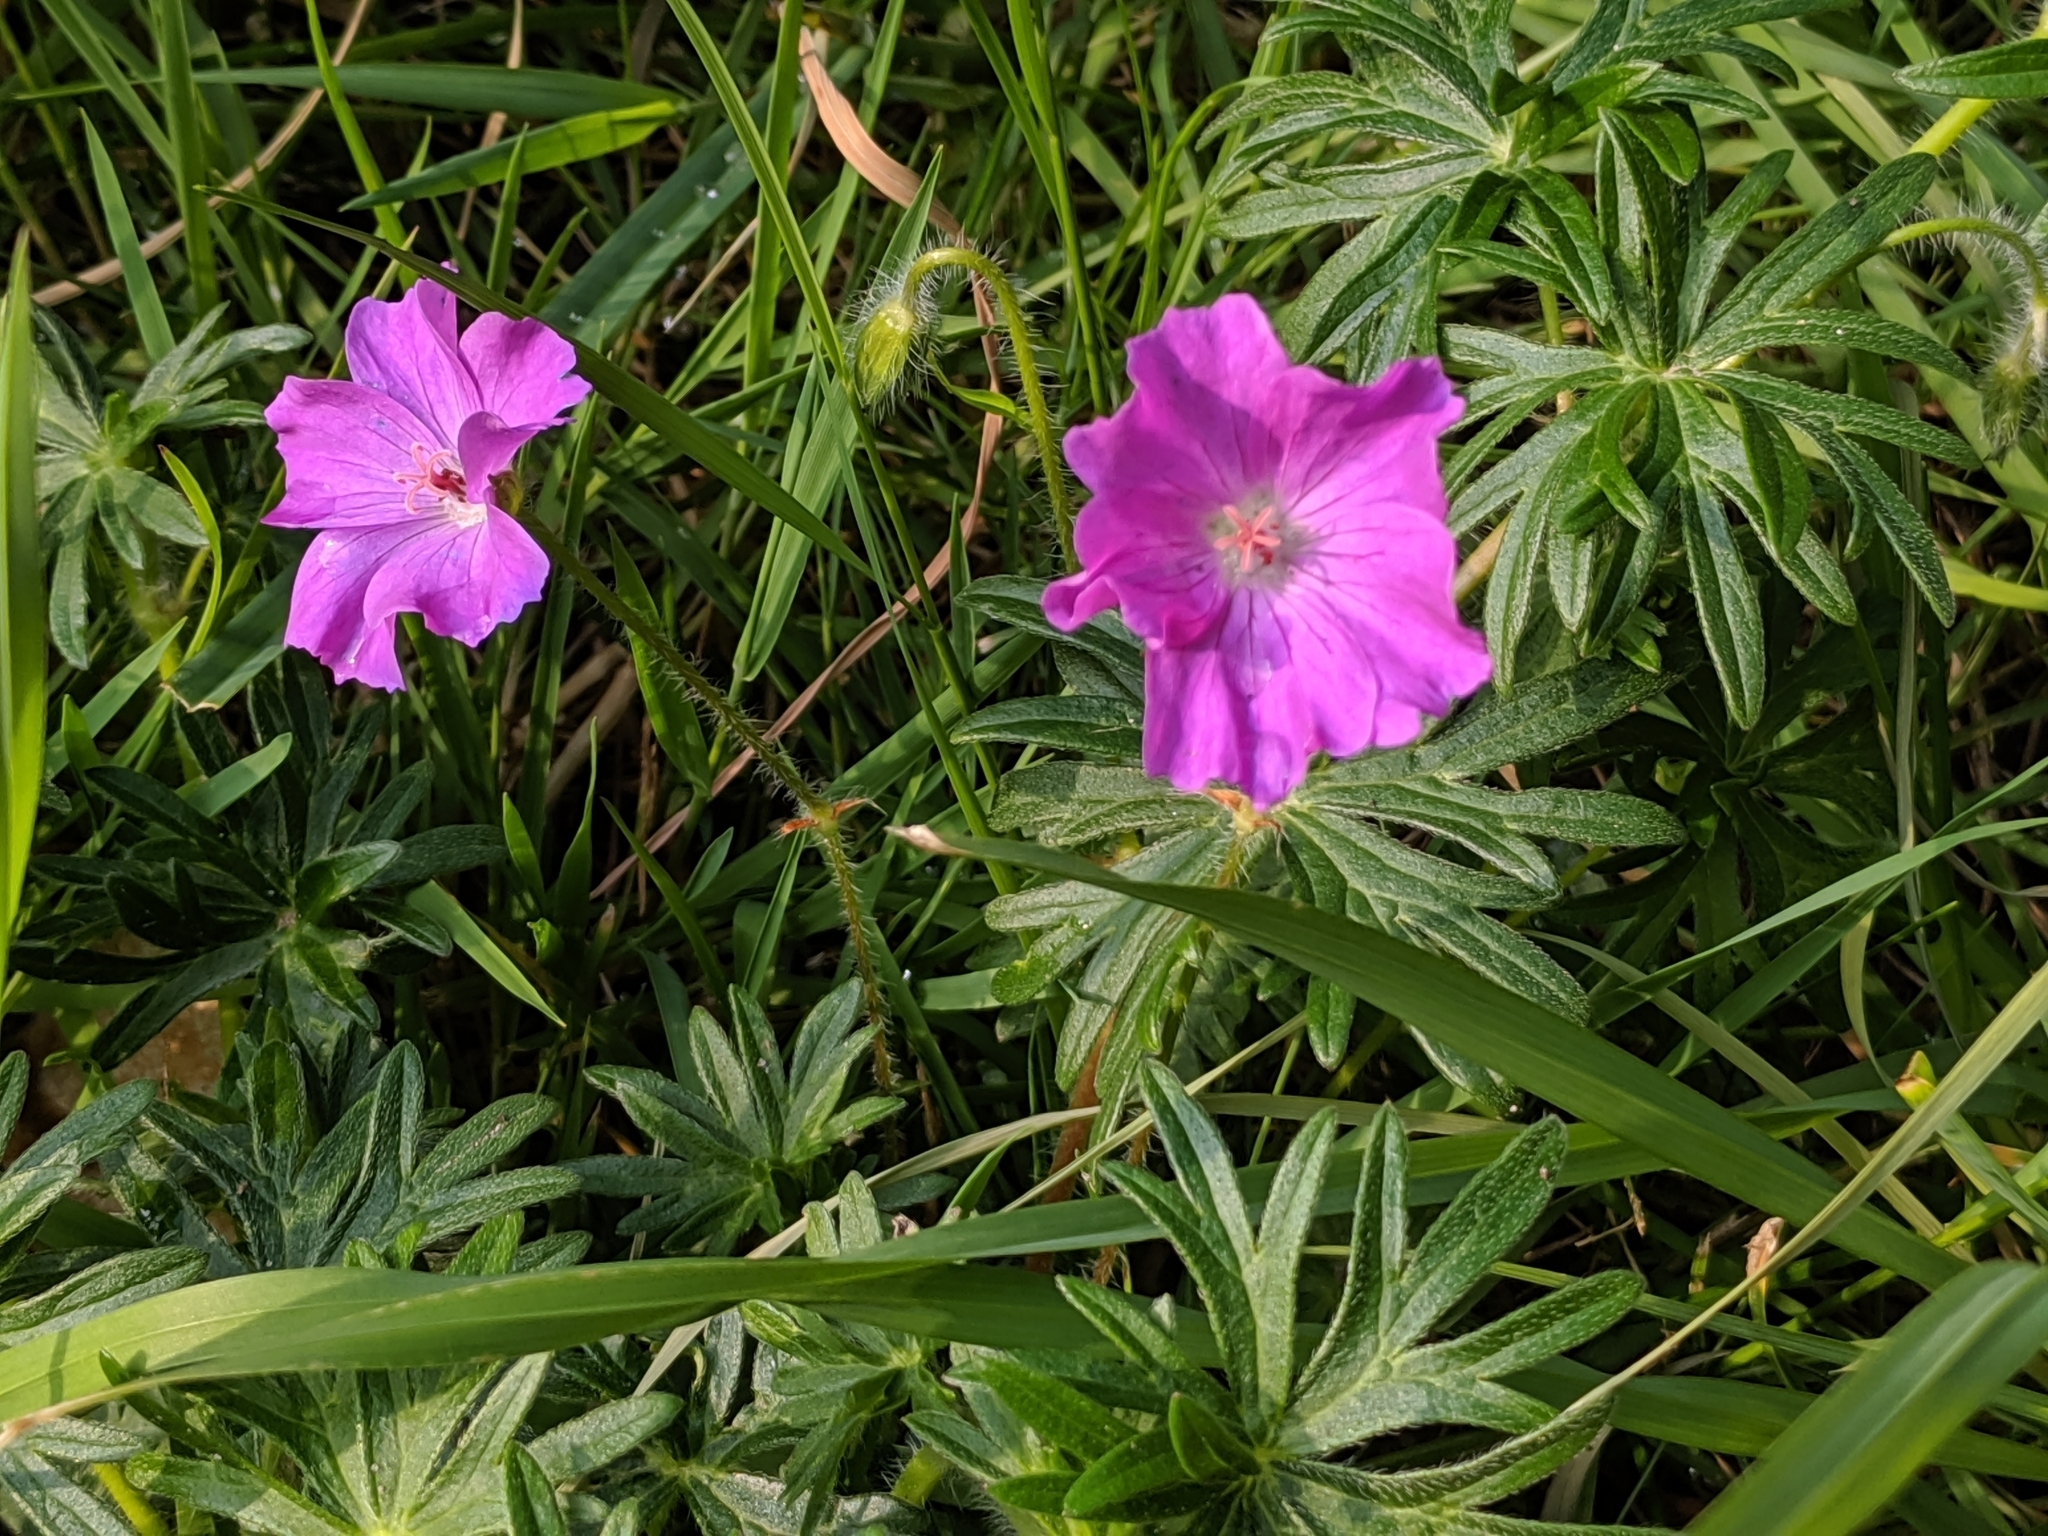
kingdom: Plantae
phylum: Tracheophyta
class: Magnoliopsida
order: Geraniales
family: Geraniaceae
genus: Geranium
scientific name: Geranium sanguineum
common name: Bloody crane's-bill
